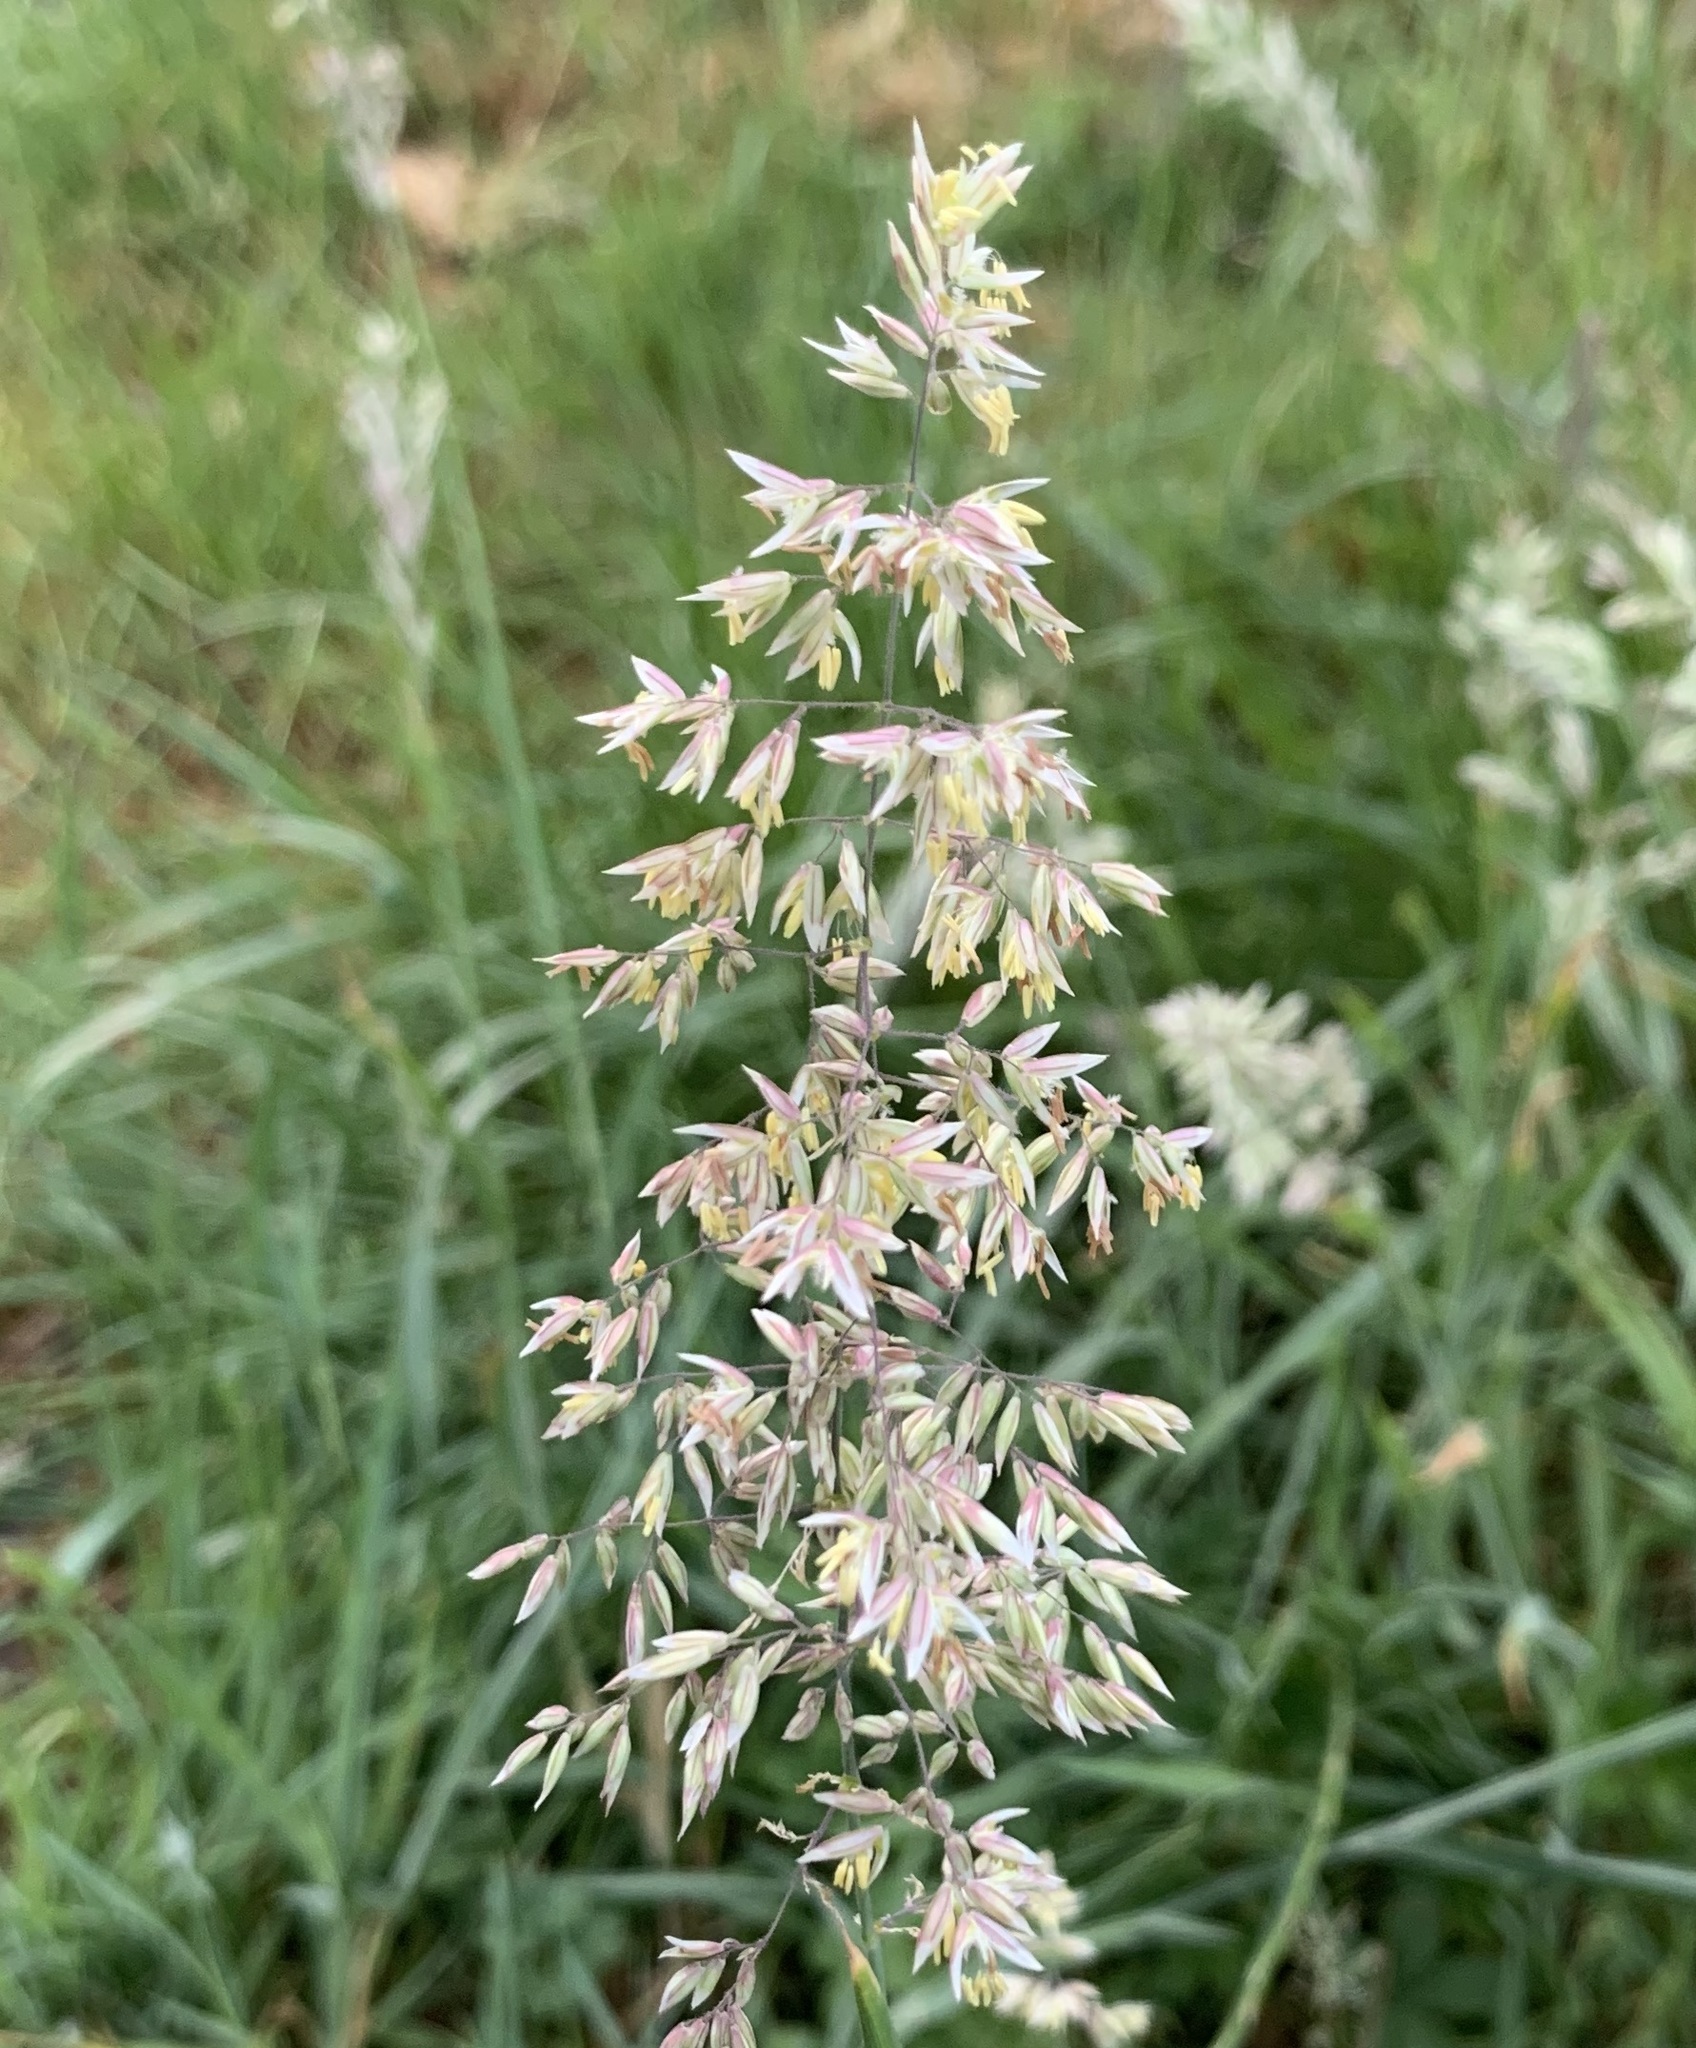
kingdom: Plantae
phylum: Tracheophyta
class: Liliopsida
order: Poales
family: Poaceae
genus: Holcus
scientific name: Holcus lanatus
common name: Yorkshire-fog
